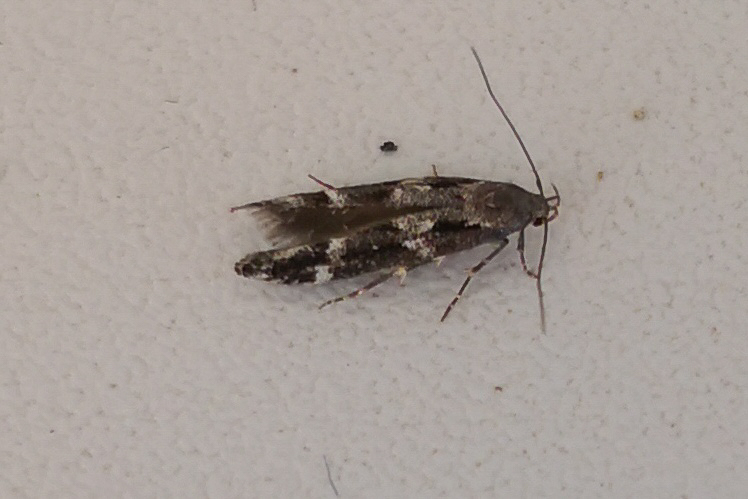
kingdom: Animalia
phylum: Arthropoda
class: Insecta
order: Lepidoptera
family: Momphidae
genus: Mompha
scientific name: Mompha subbistrigella
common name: Garden cosmet
